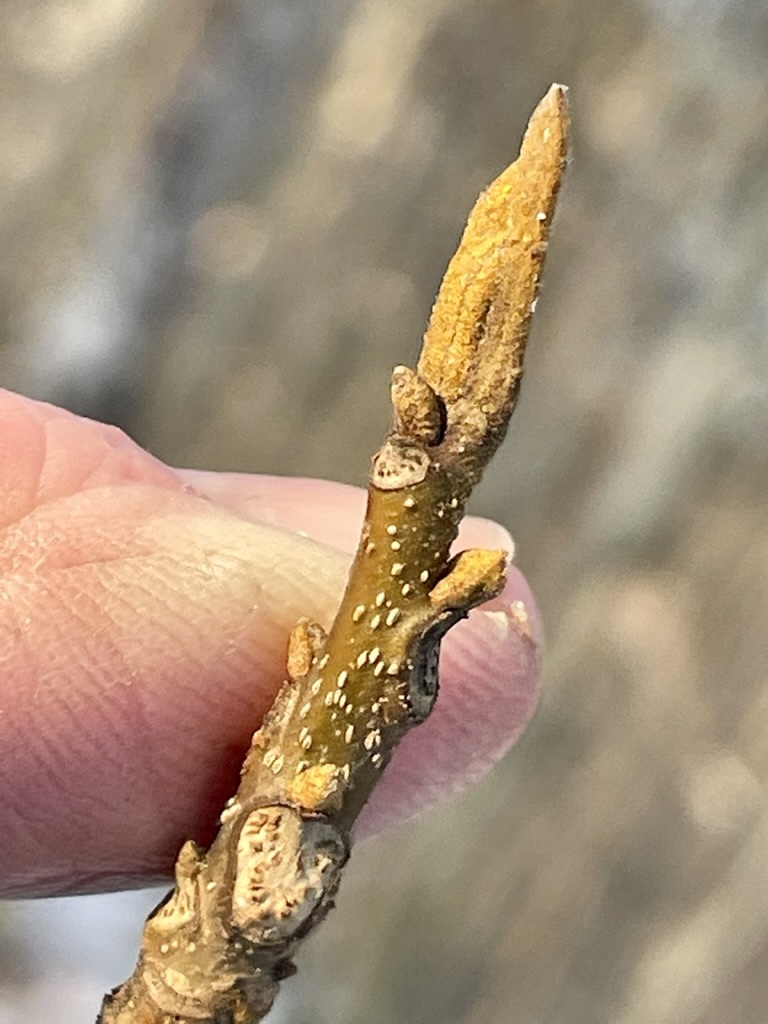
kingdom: Plantae
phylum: Tracheophyta
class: Magnoliopsida
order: Fagales
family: Juglandaceae
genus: Carya
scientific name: Carya cordiformis
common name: Bitternut hickory
